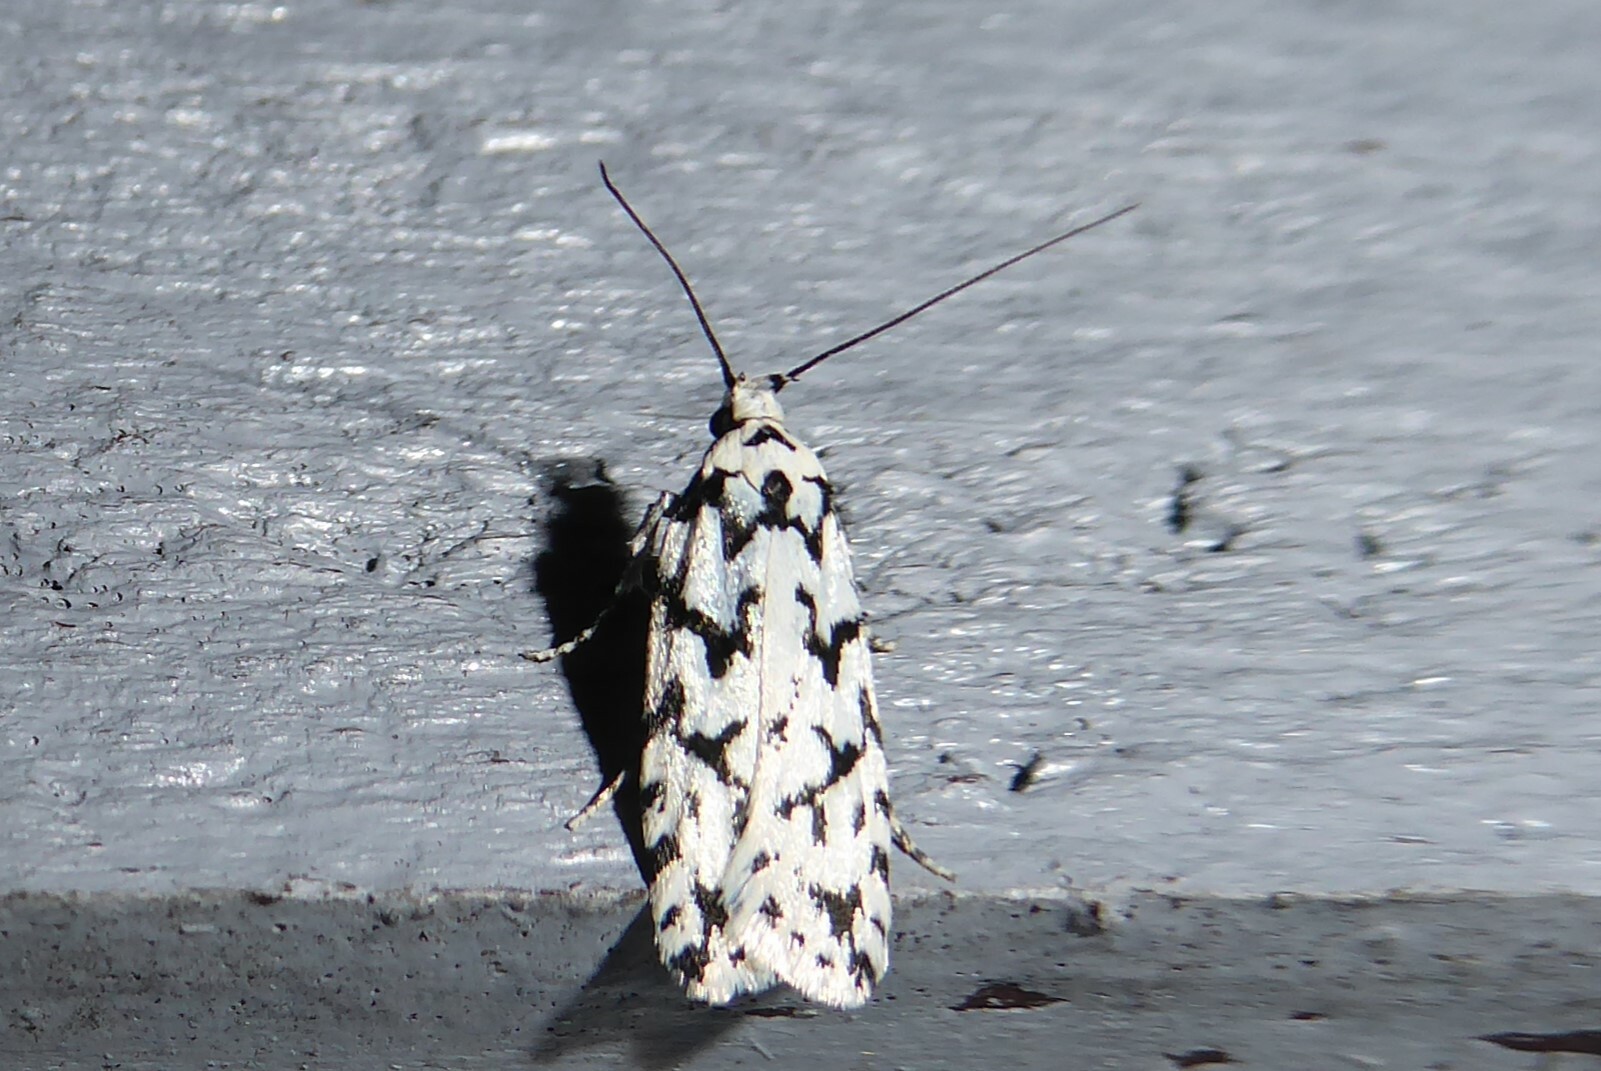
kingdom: Animalia
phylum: Arthropoda
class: Insecta
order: Lepidoptera
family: Oecophoridae
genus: Izatha
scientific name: Izatha katadiktya
